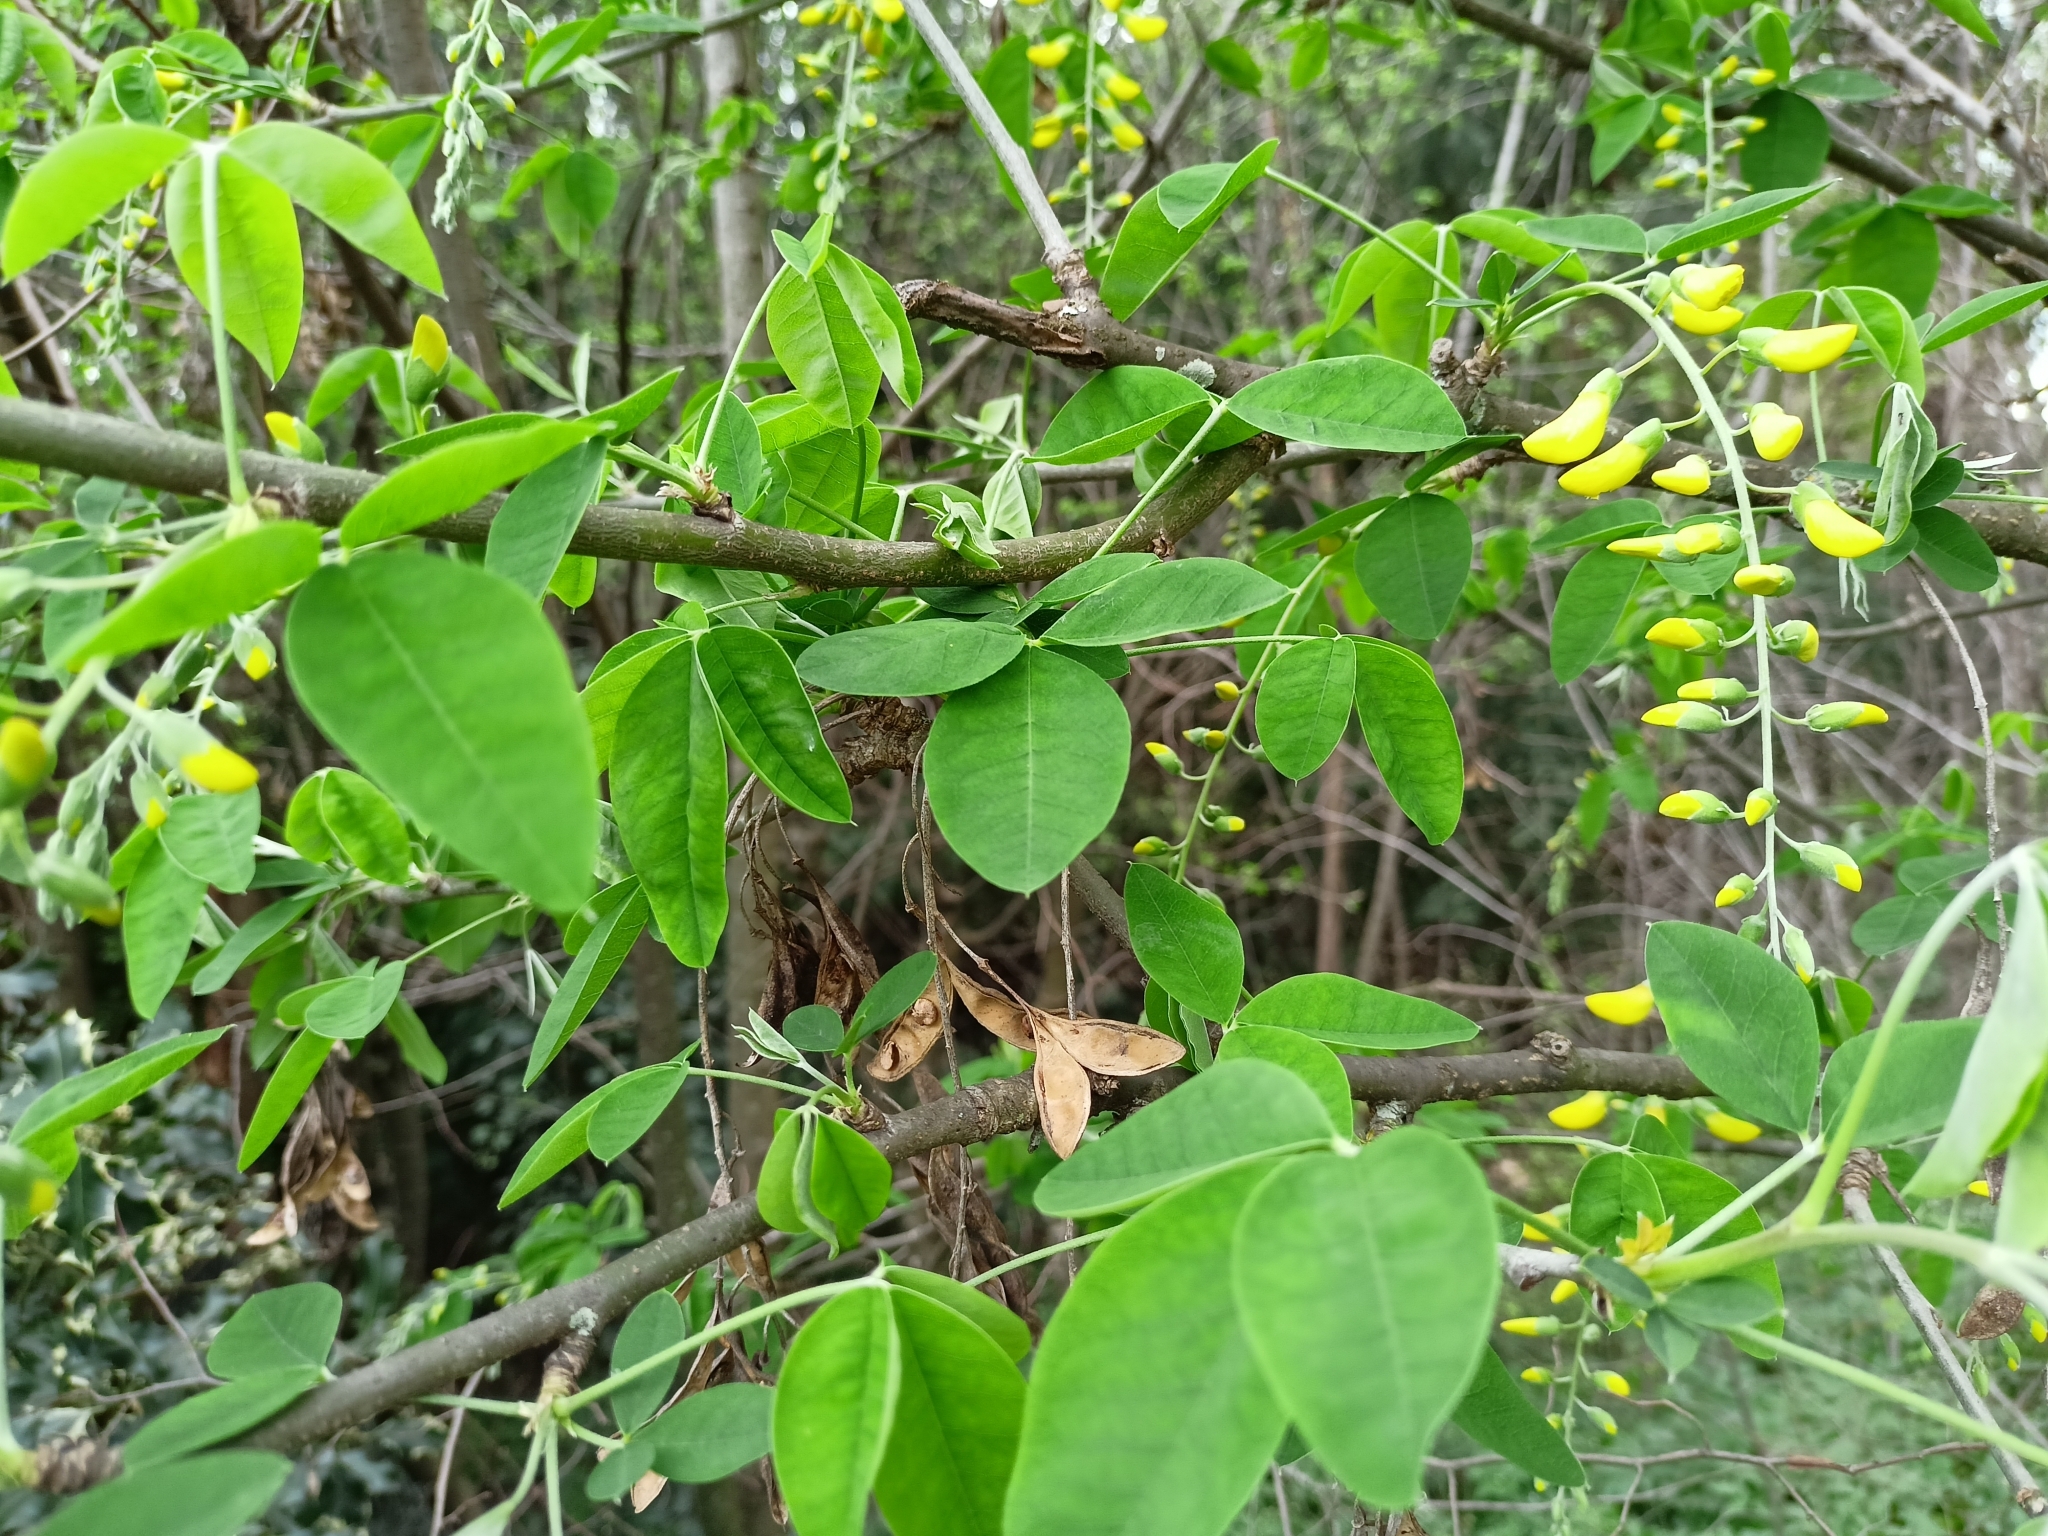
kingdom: Plantae
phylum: Tracheophyta
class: Magnoliopsida
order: Fabales
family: Fabaceae
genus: Laburnum
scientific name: Laburnum anagyroides
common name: Laburnum
